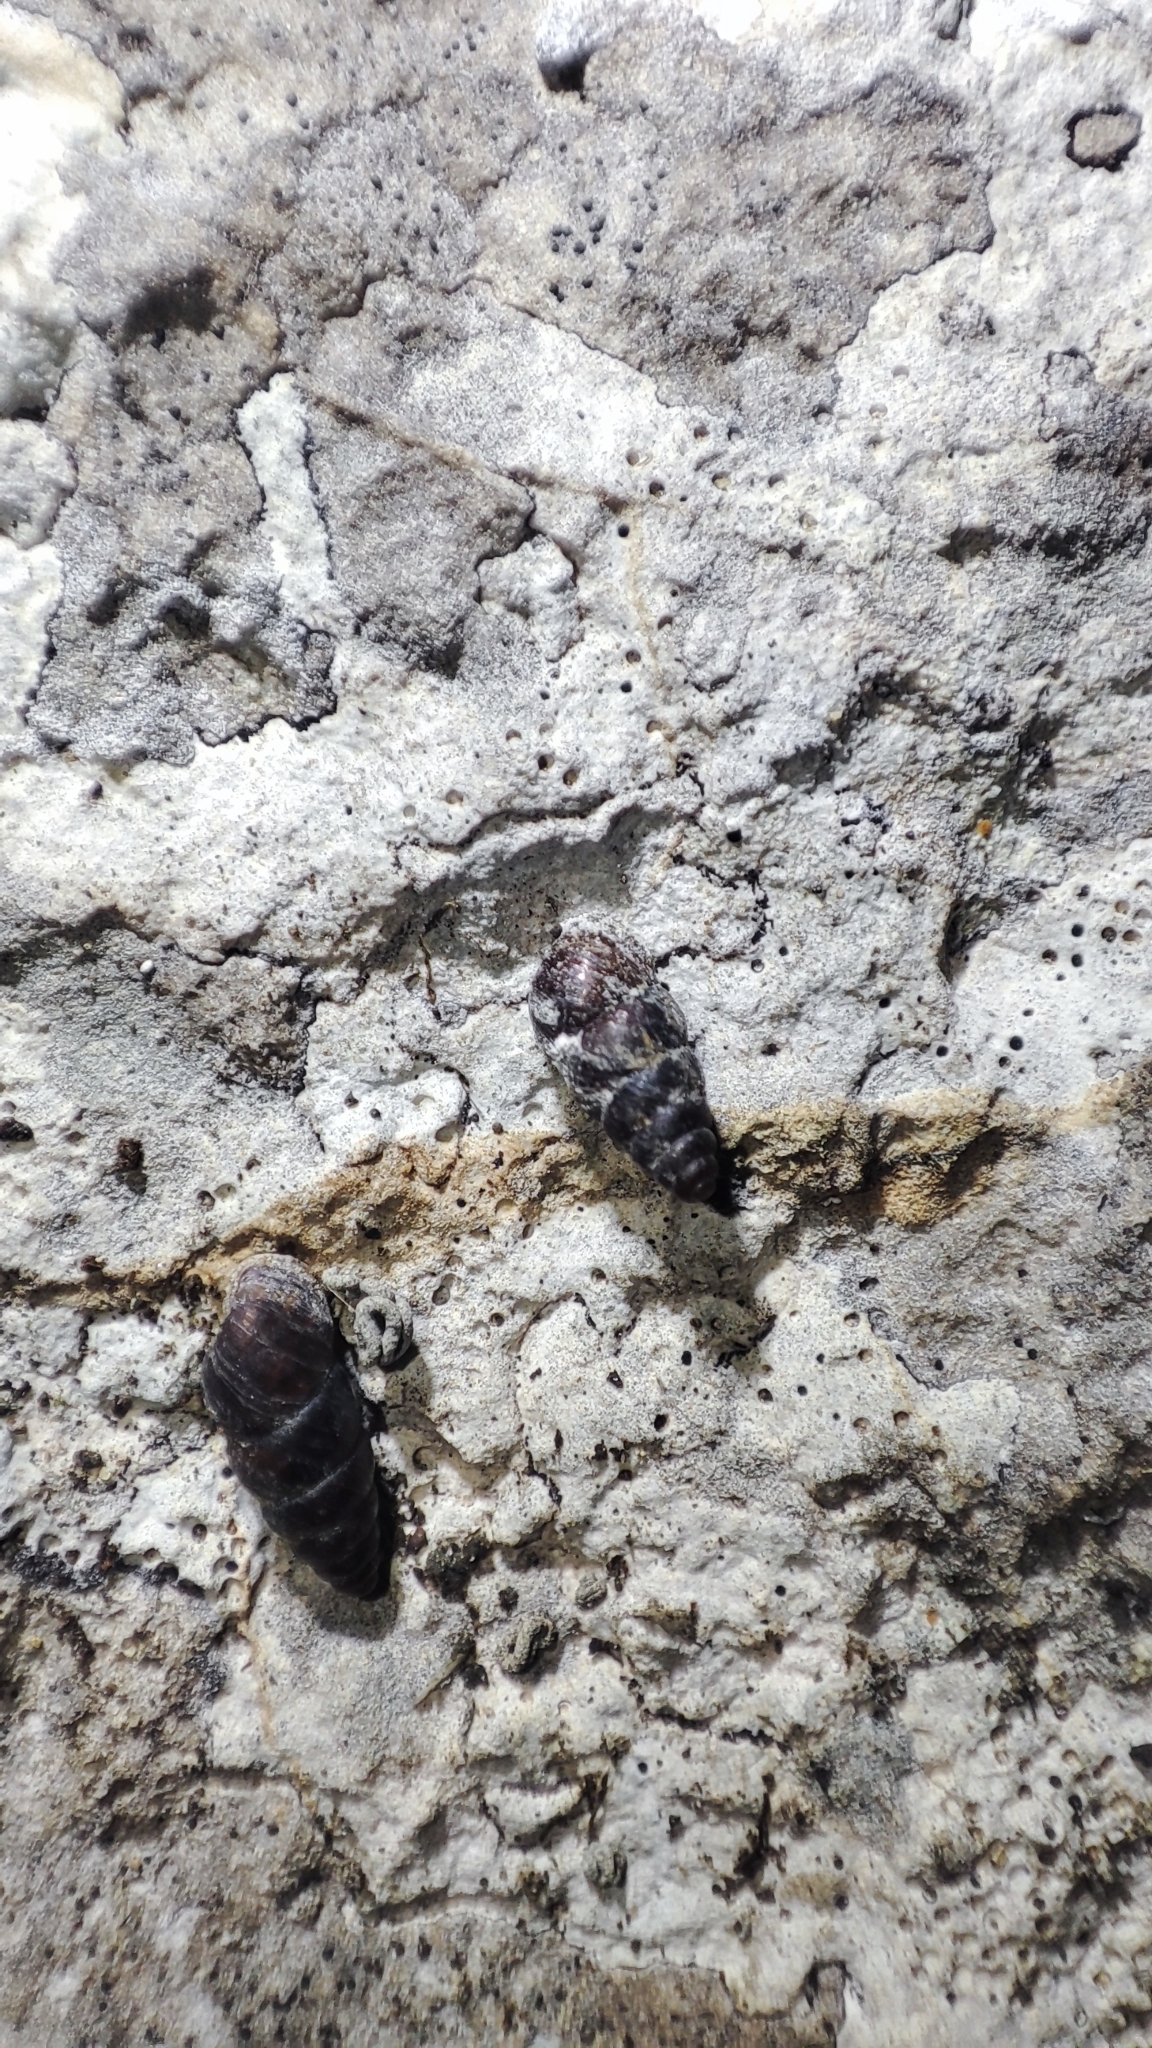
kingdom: Animalia
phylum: Mollusca
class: Gastropoda
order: Stylommatophora
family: Chondrinidae
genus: Chondrina
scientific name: Chondrina avenacea
